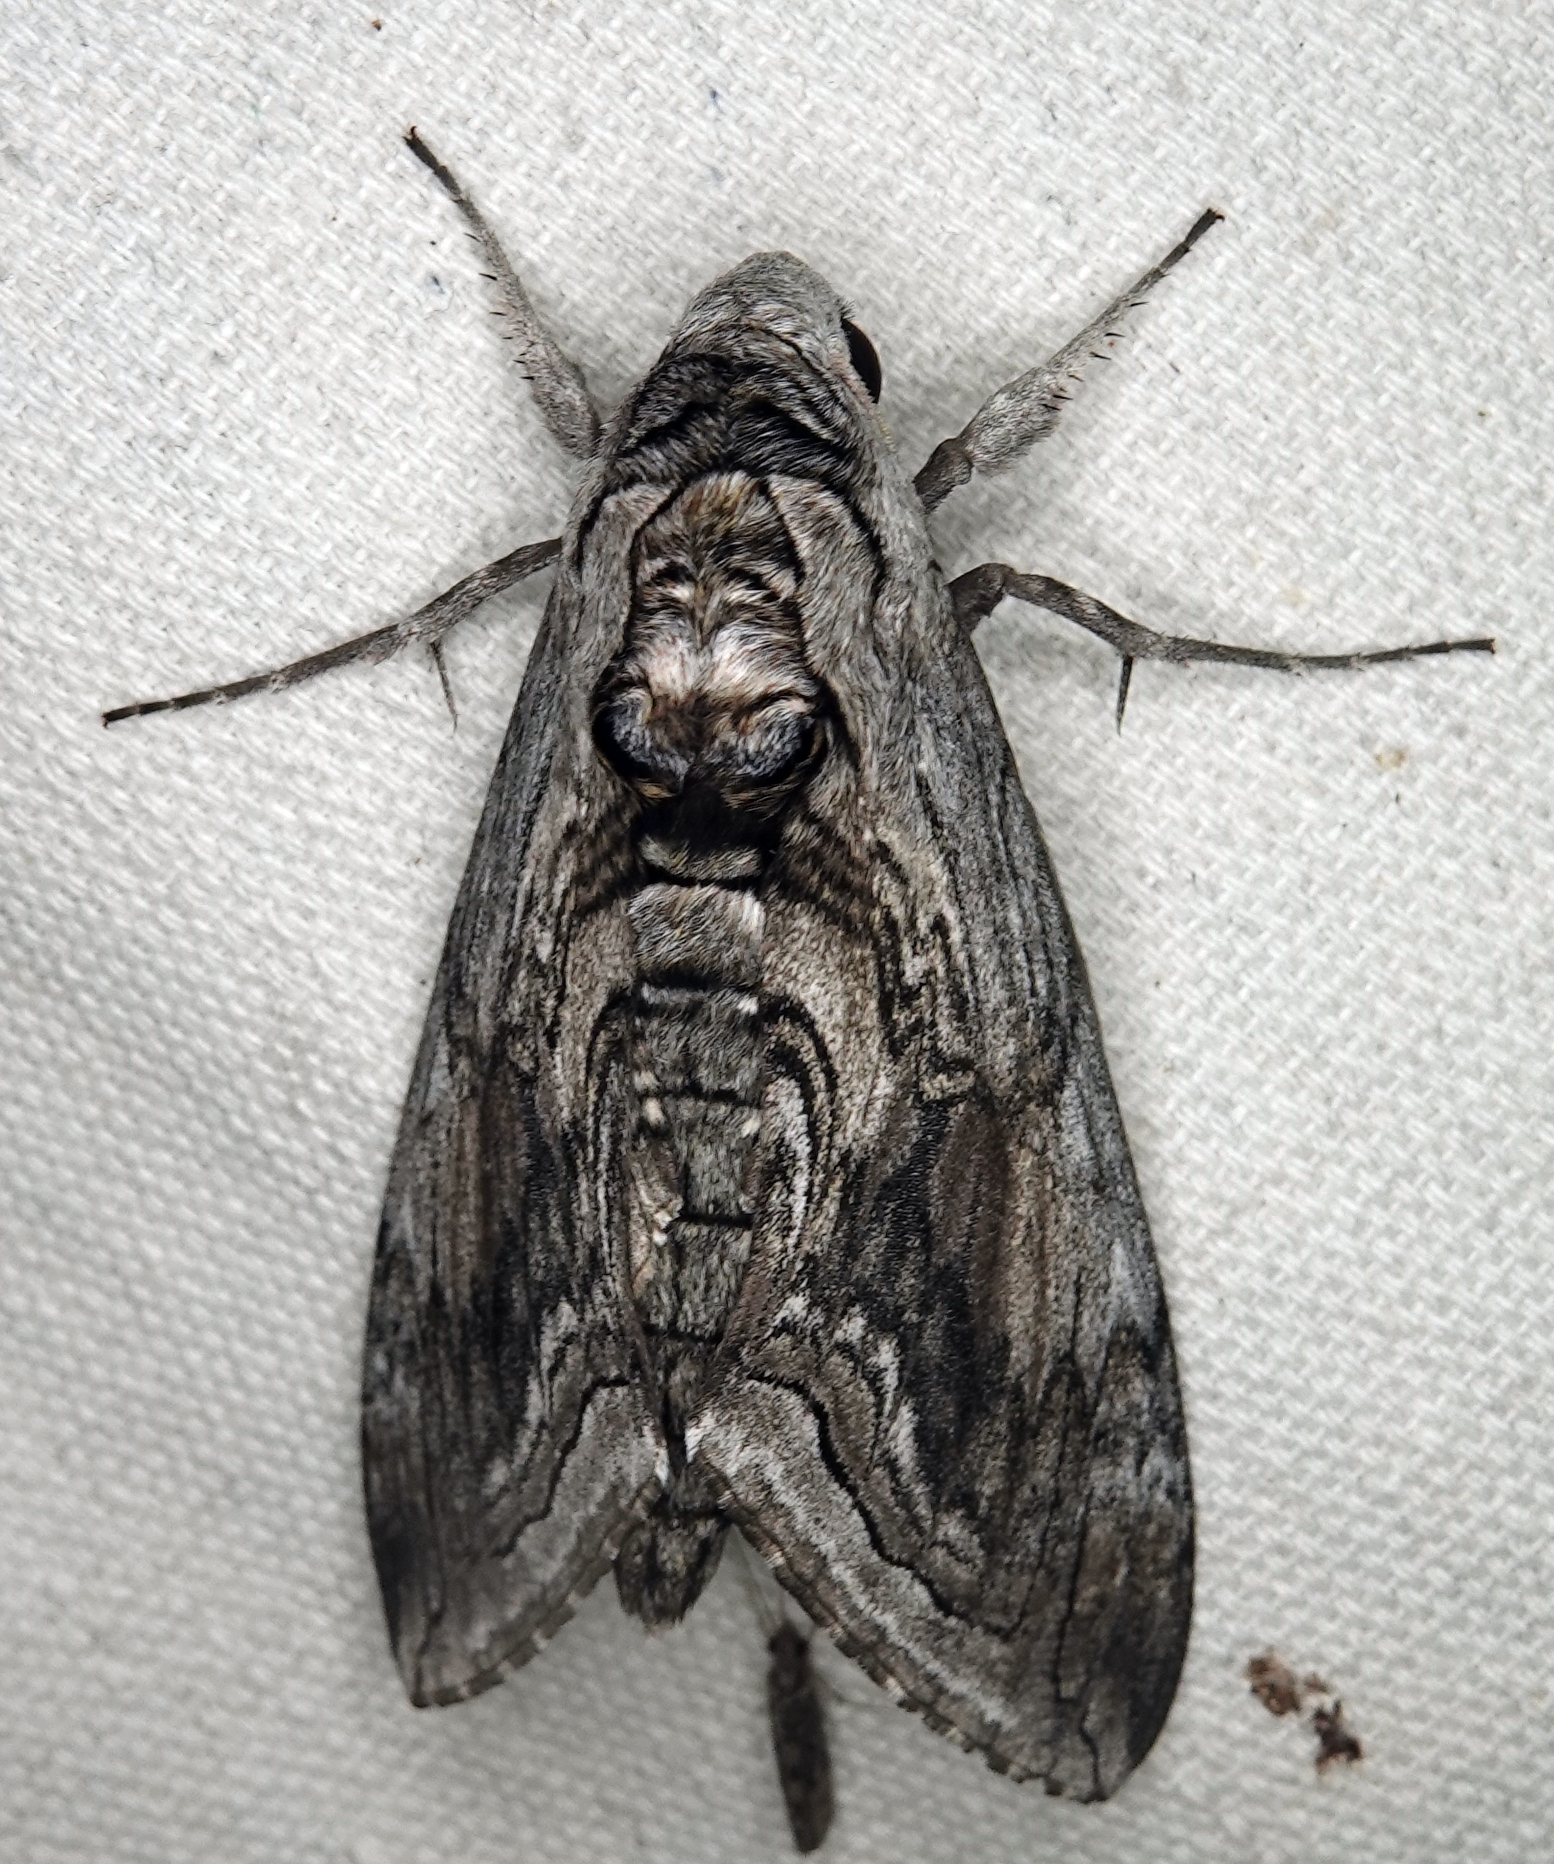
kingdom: Animalia
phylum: Arthropoda
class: Insecta
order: Lepidoptera
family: Sphingidae
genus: Manduca
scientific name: Manduca quinquemaculatus
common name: Five-spotted hawk-moth
